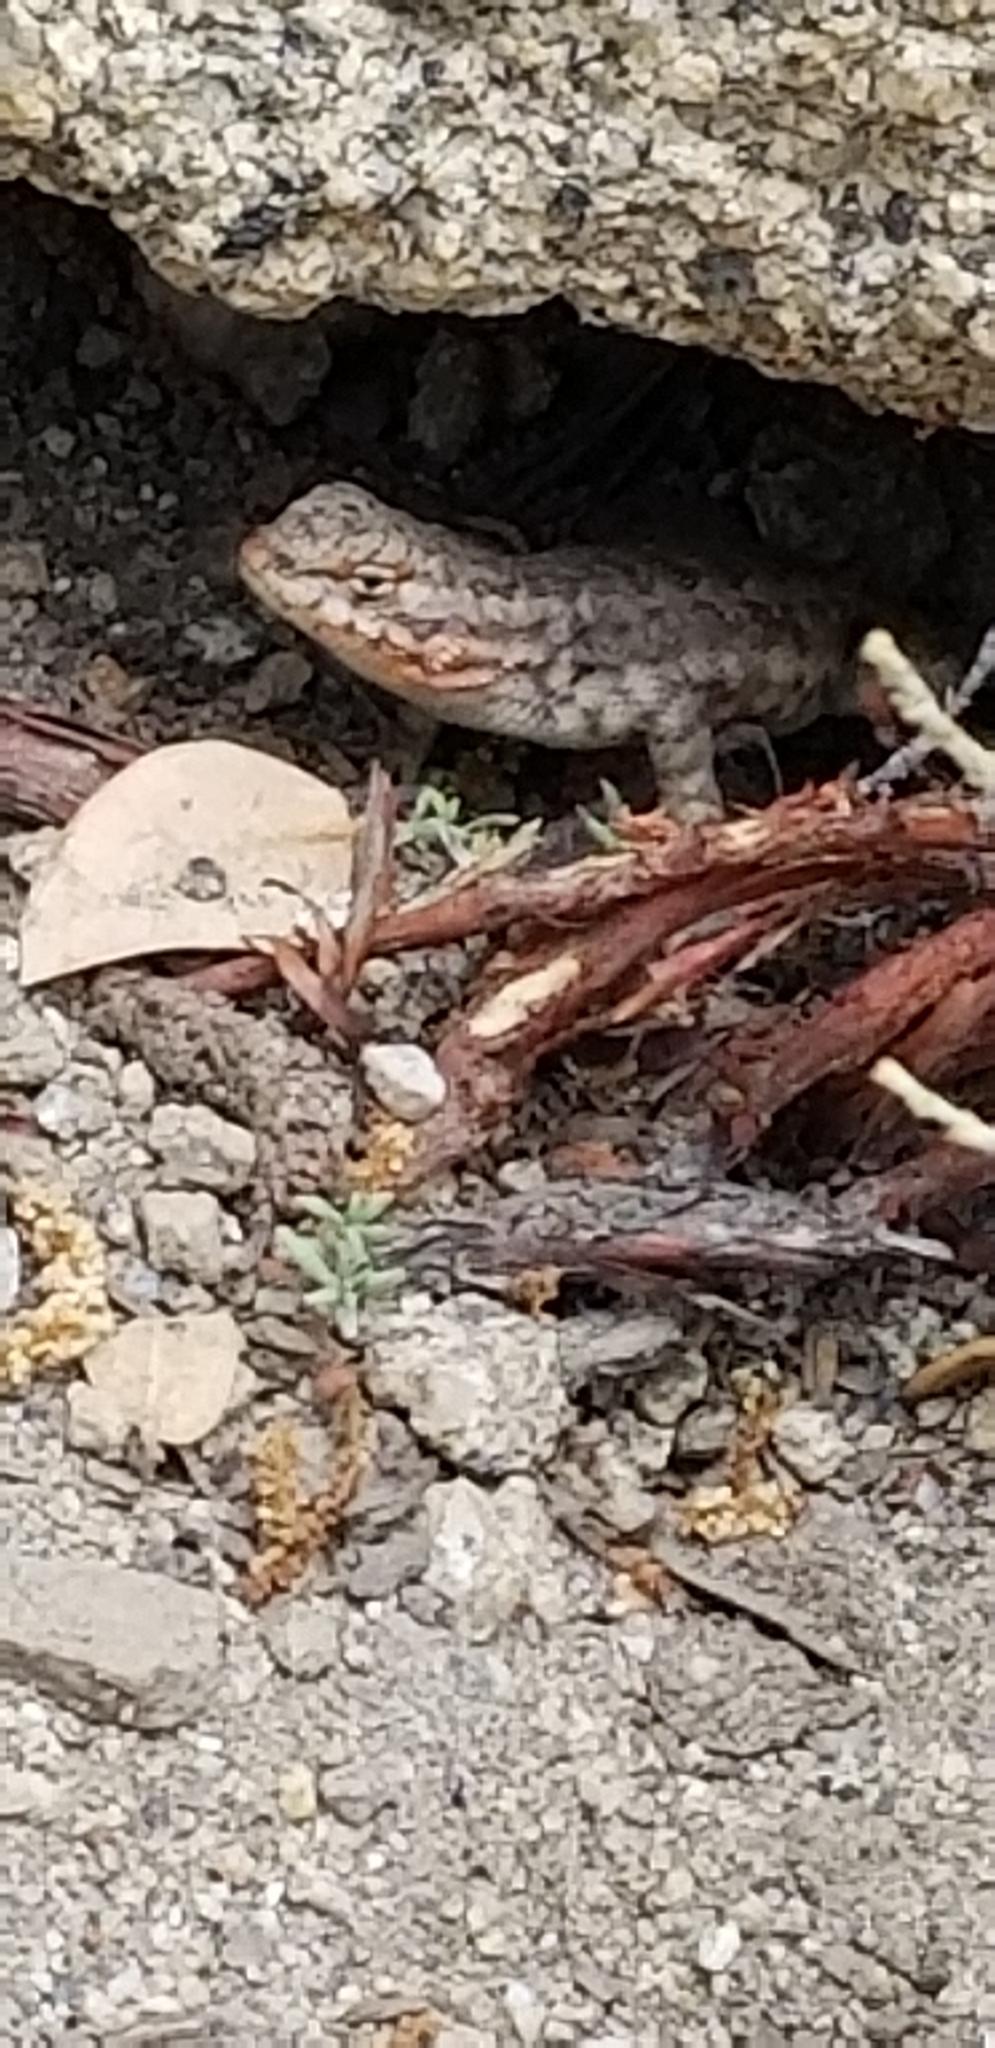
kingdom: Animalia
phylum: Chordata
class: Squamata
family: Phrynosomatidae
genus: Sceloporus
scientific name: Sceloporus graciosus
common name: Sagebrush lizard
